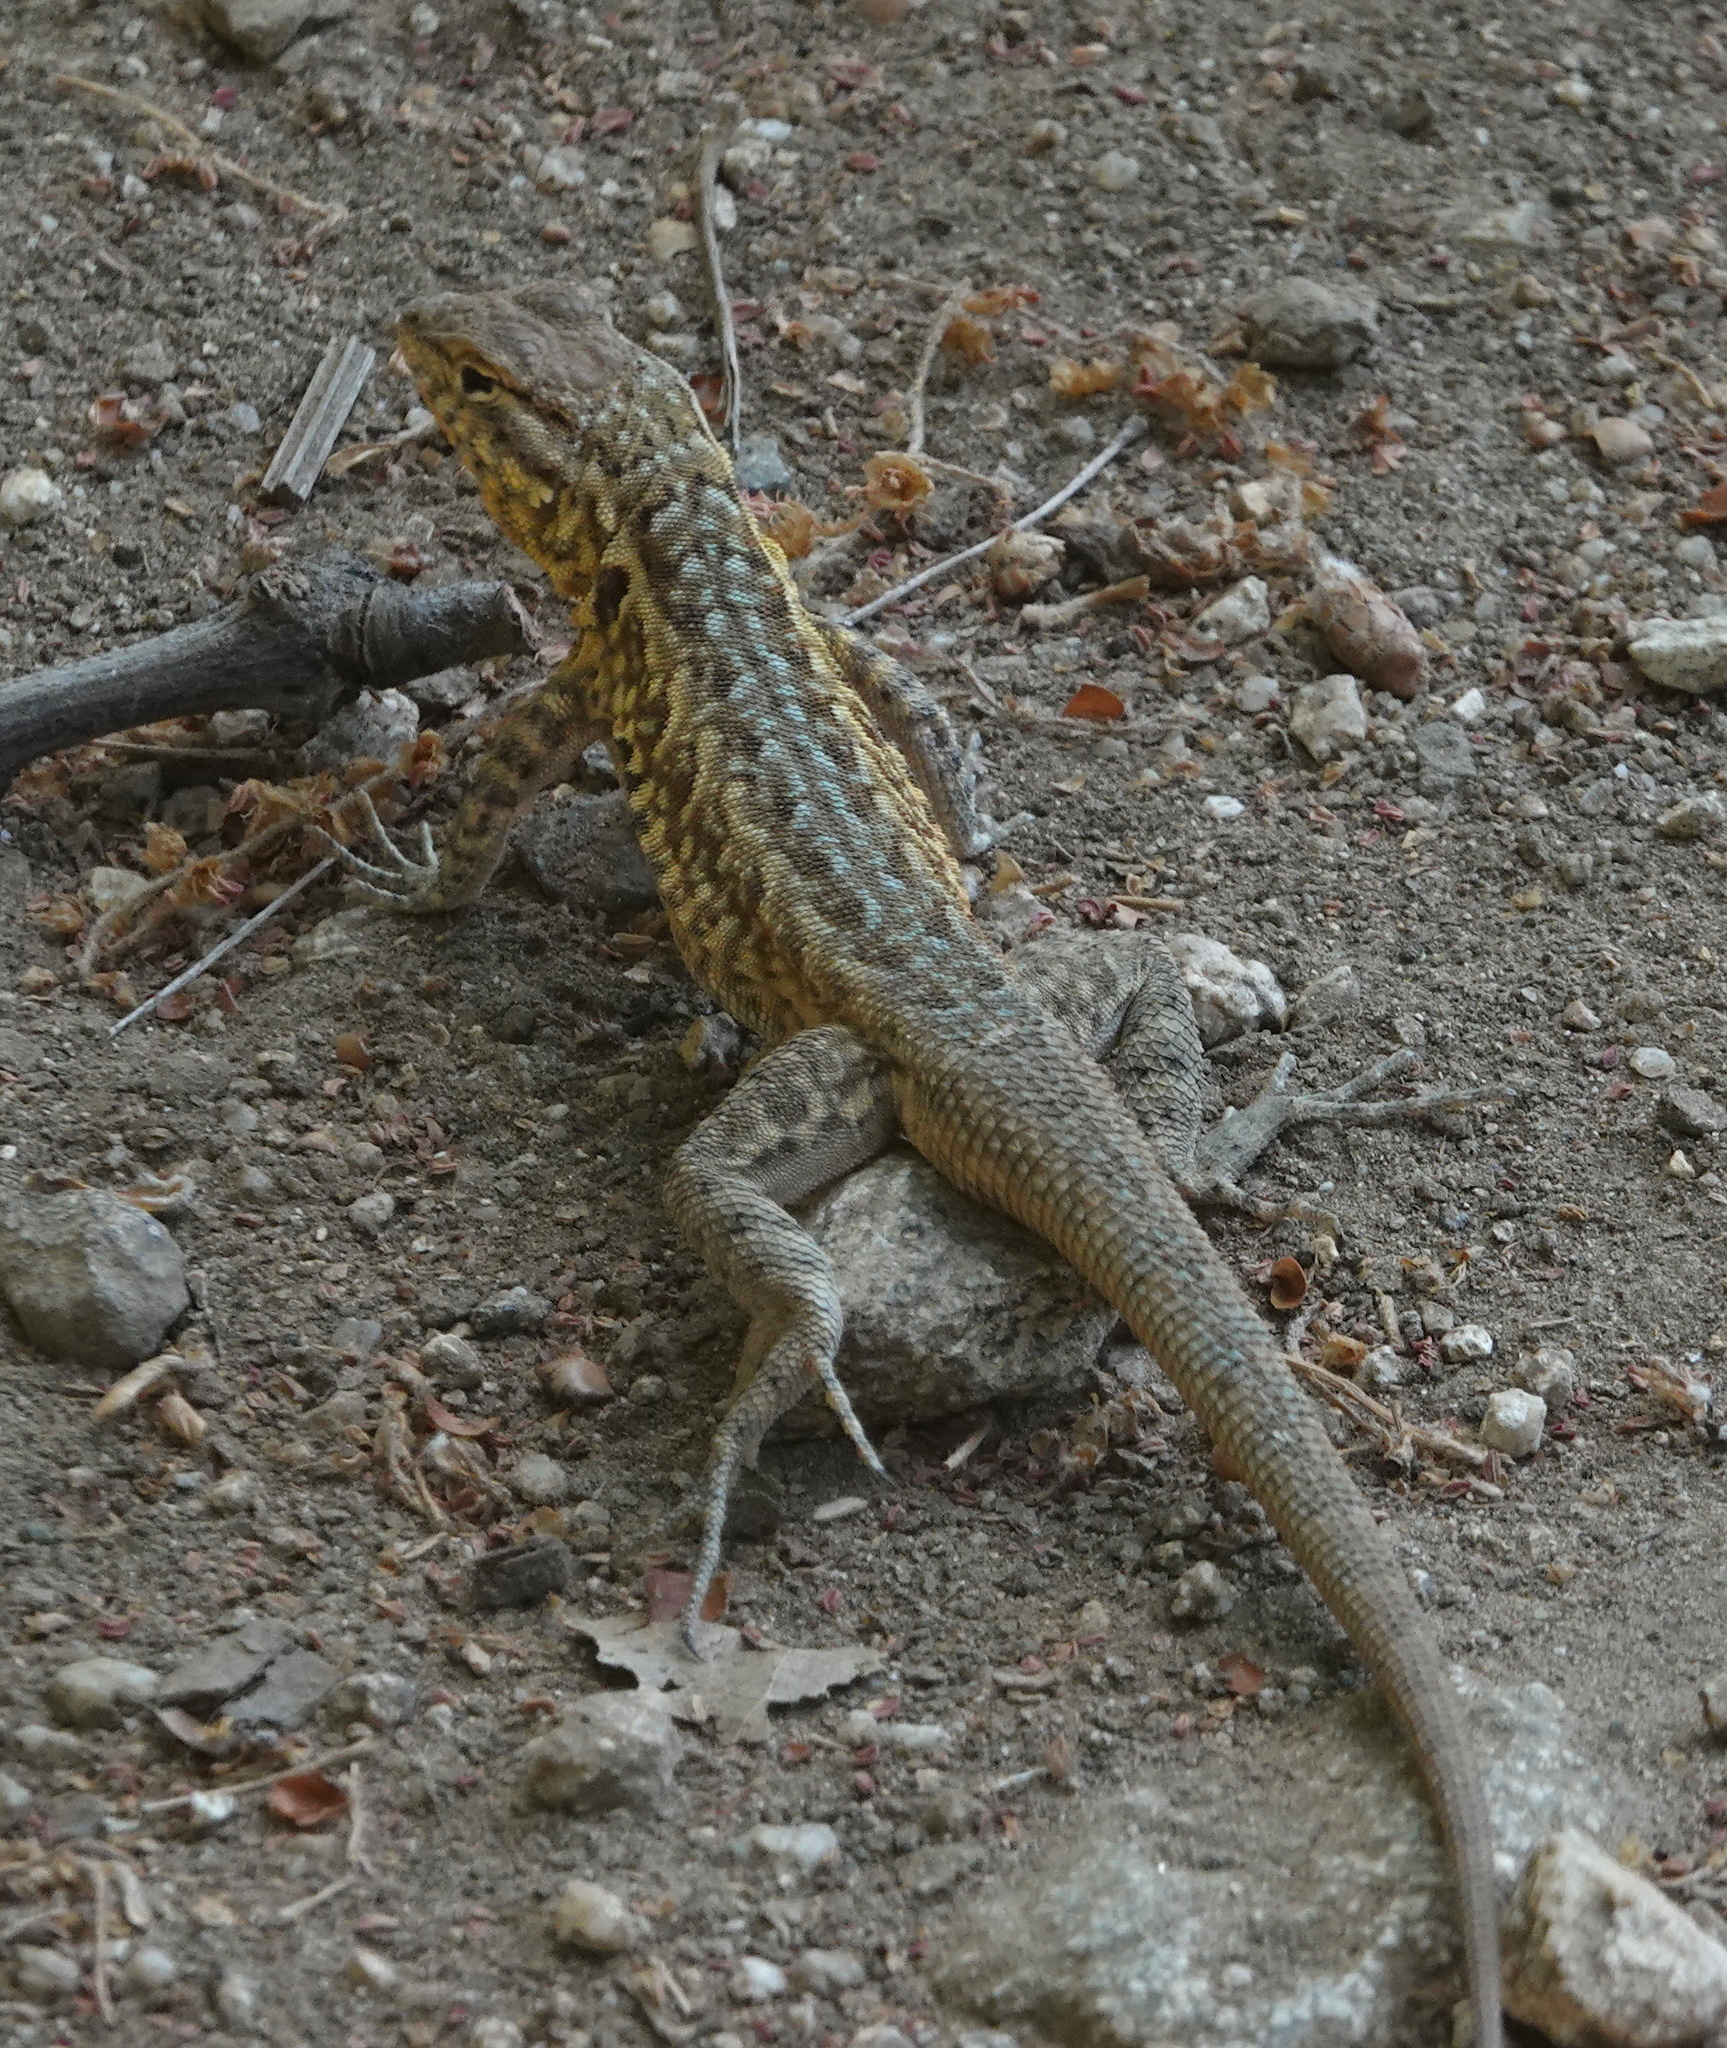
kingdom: Animalia
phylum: Chordata
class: Squamata
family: Phrynosomatidae
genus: Uta
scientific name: Uta stansburiana
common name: Side-blotched lizard
